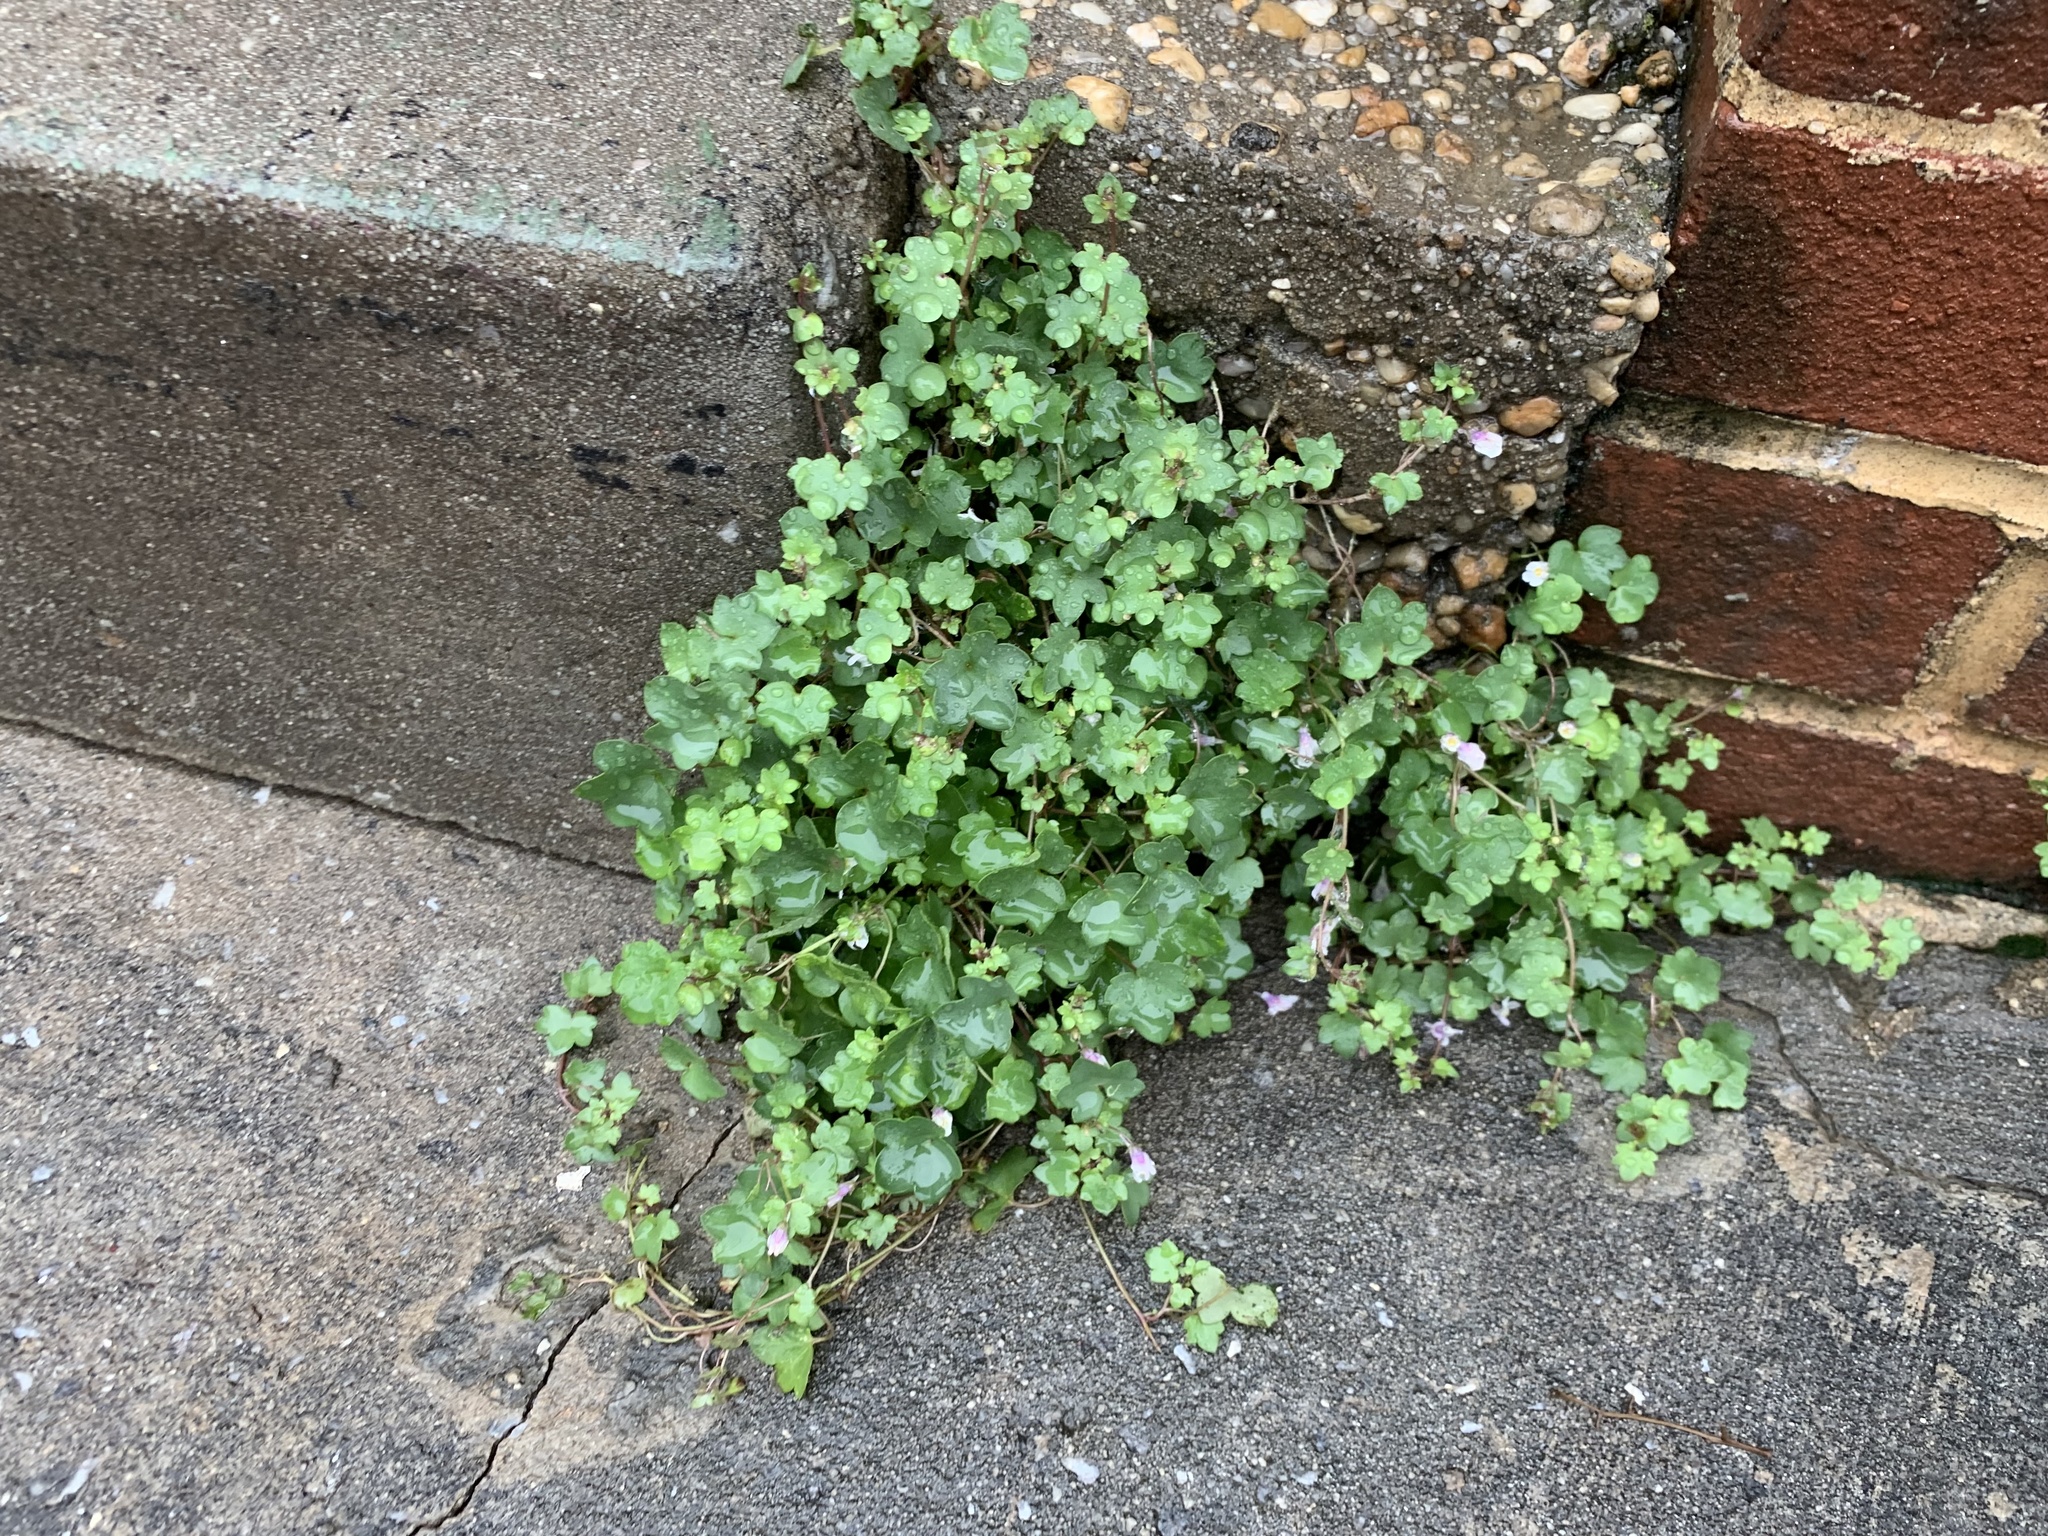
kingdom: Plantae
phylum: Tracheophyta
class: Magnoliopsida
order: Lamiales
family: Plantaginaceae
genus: Cymbalaria
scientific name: Cymbalaria muralis
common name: Ivy-leaved toadflax
